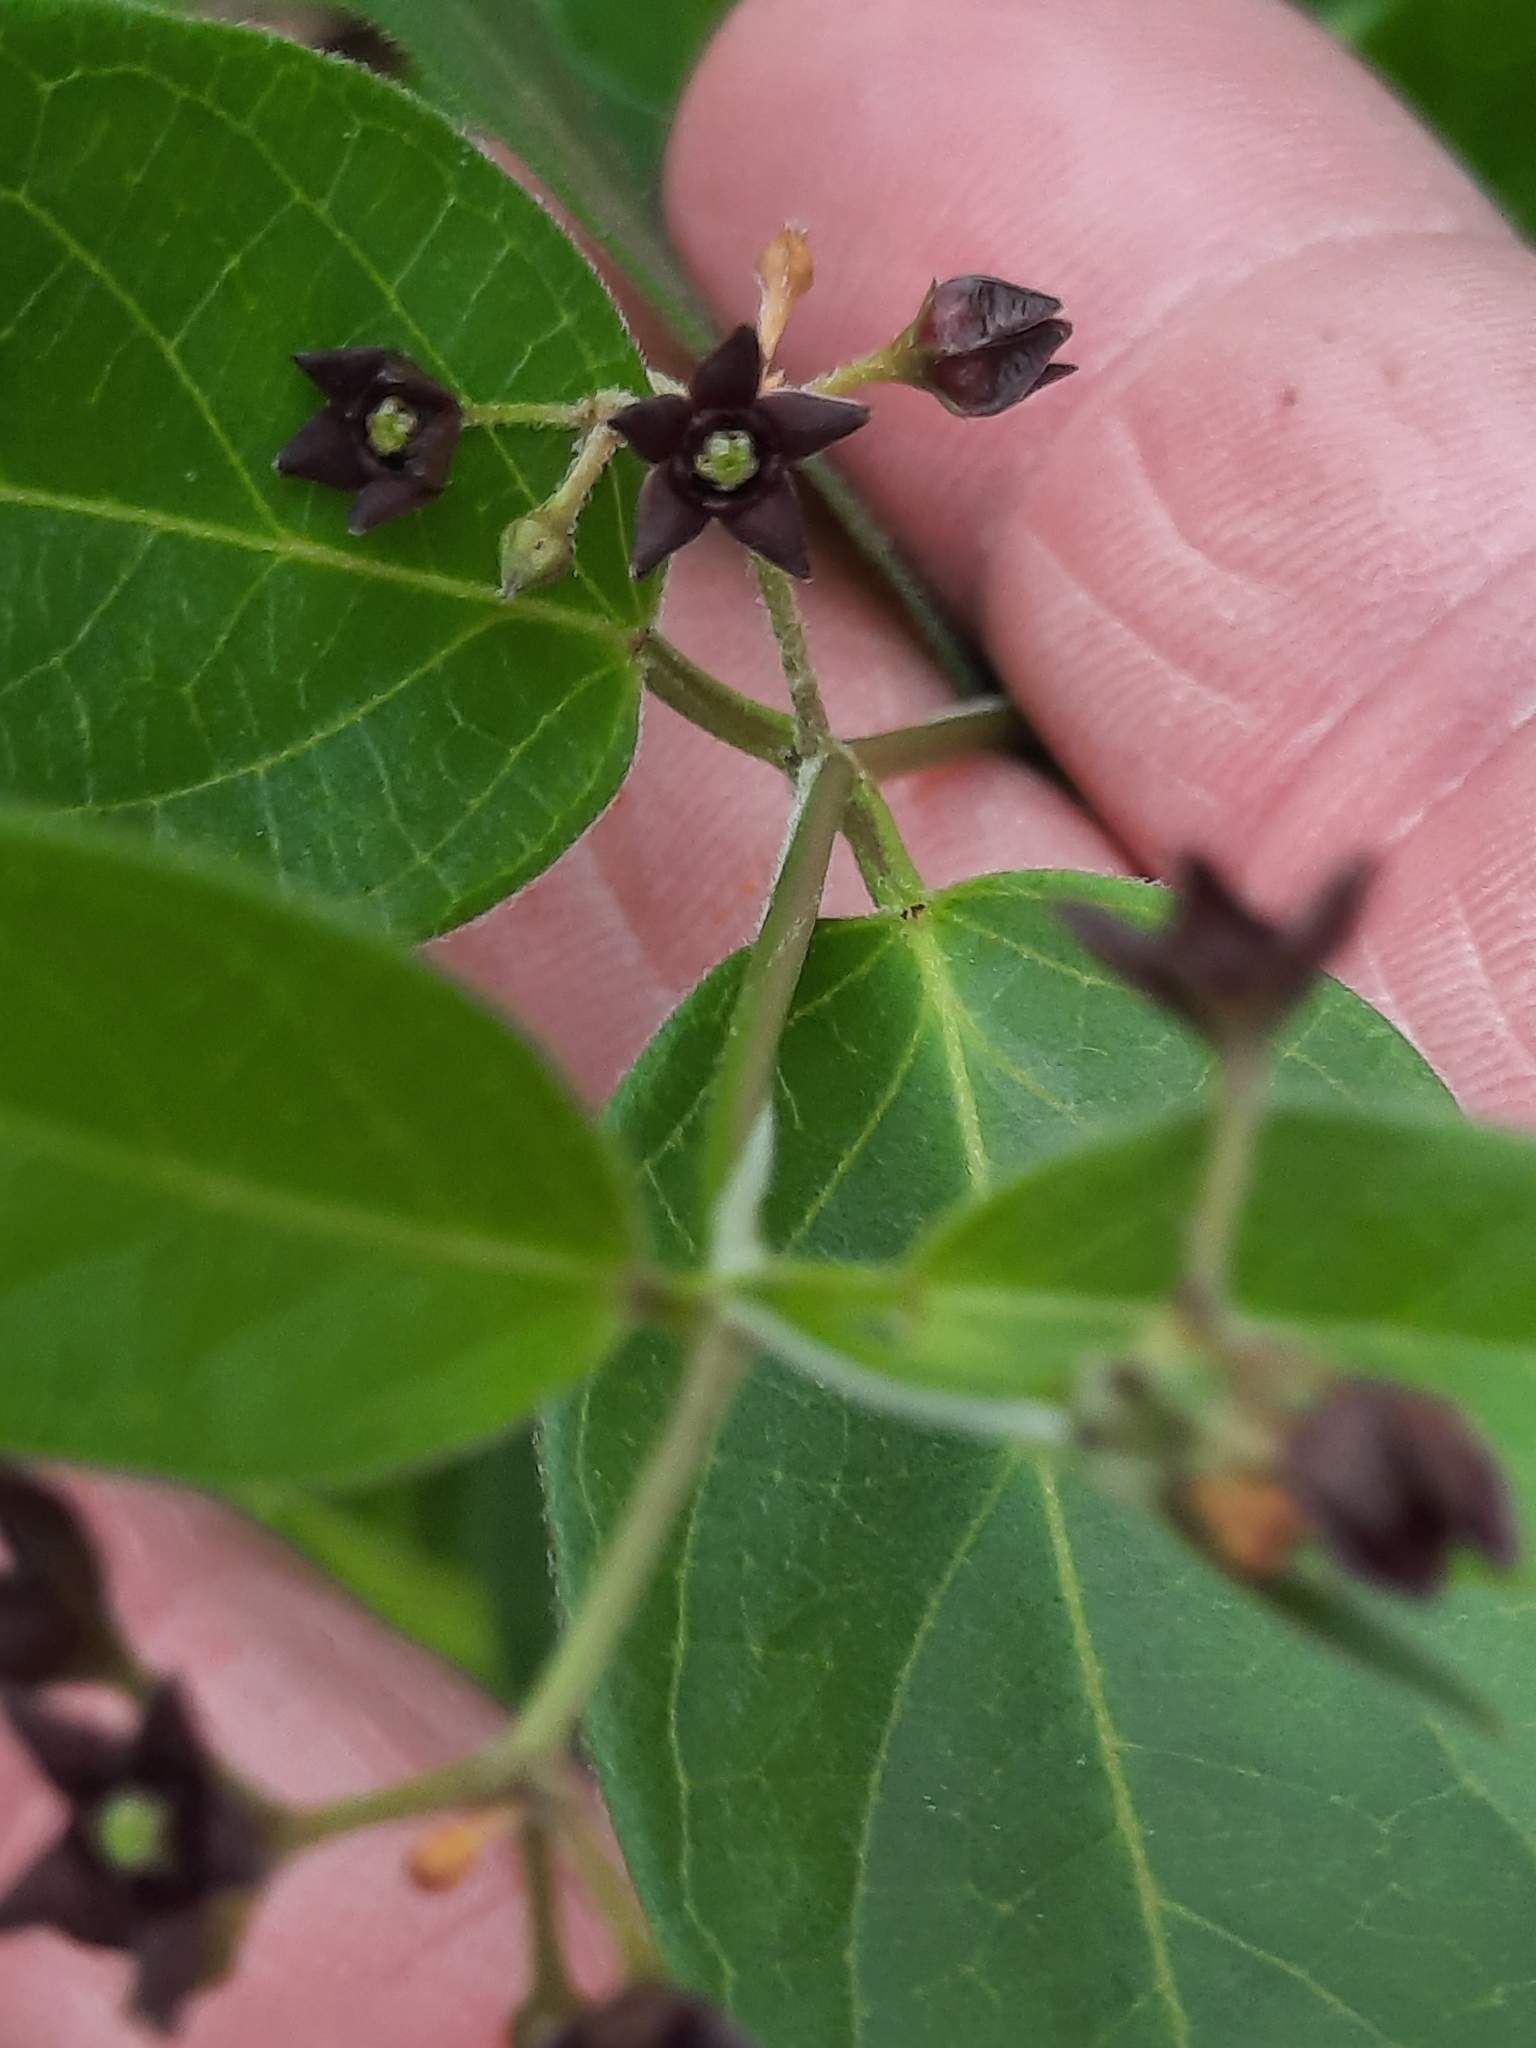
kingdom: Plantae
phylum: Tracheophyta
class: Magnoliopsida
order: Gentianales
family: Apocynaceae
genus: Vincetoxicum
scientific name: Vincetoxicum nigrum
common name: Black swallow-wort
